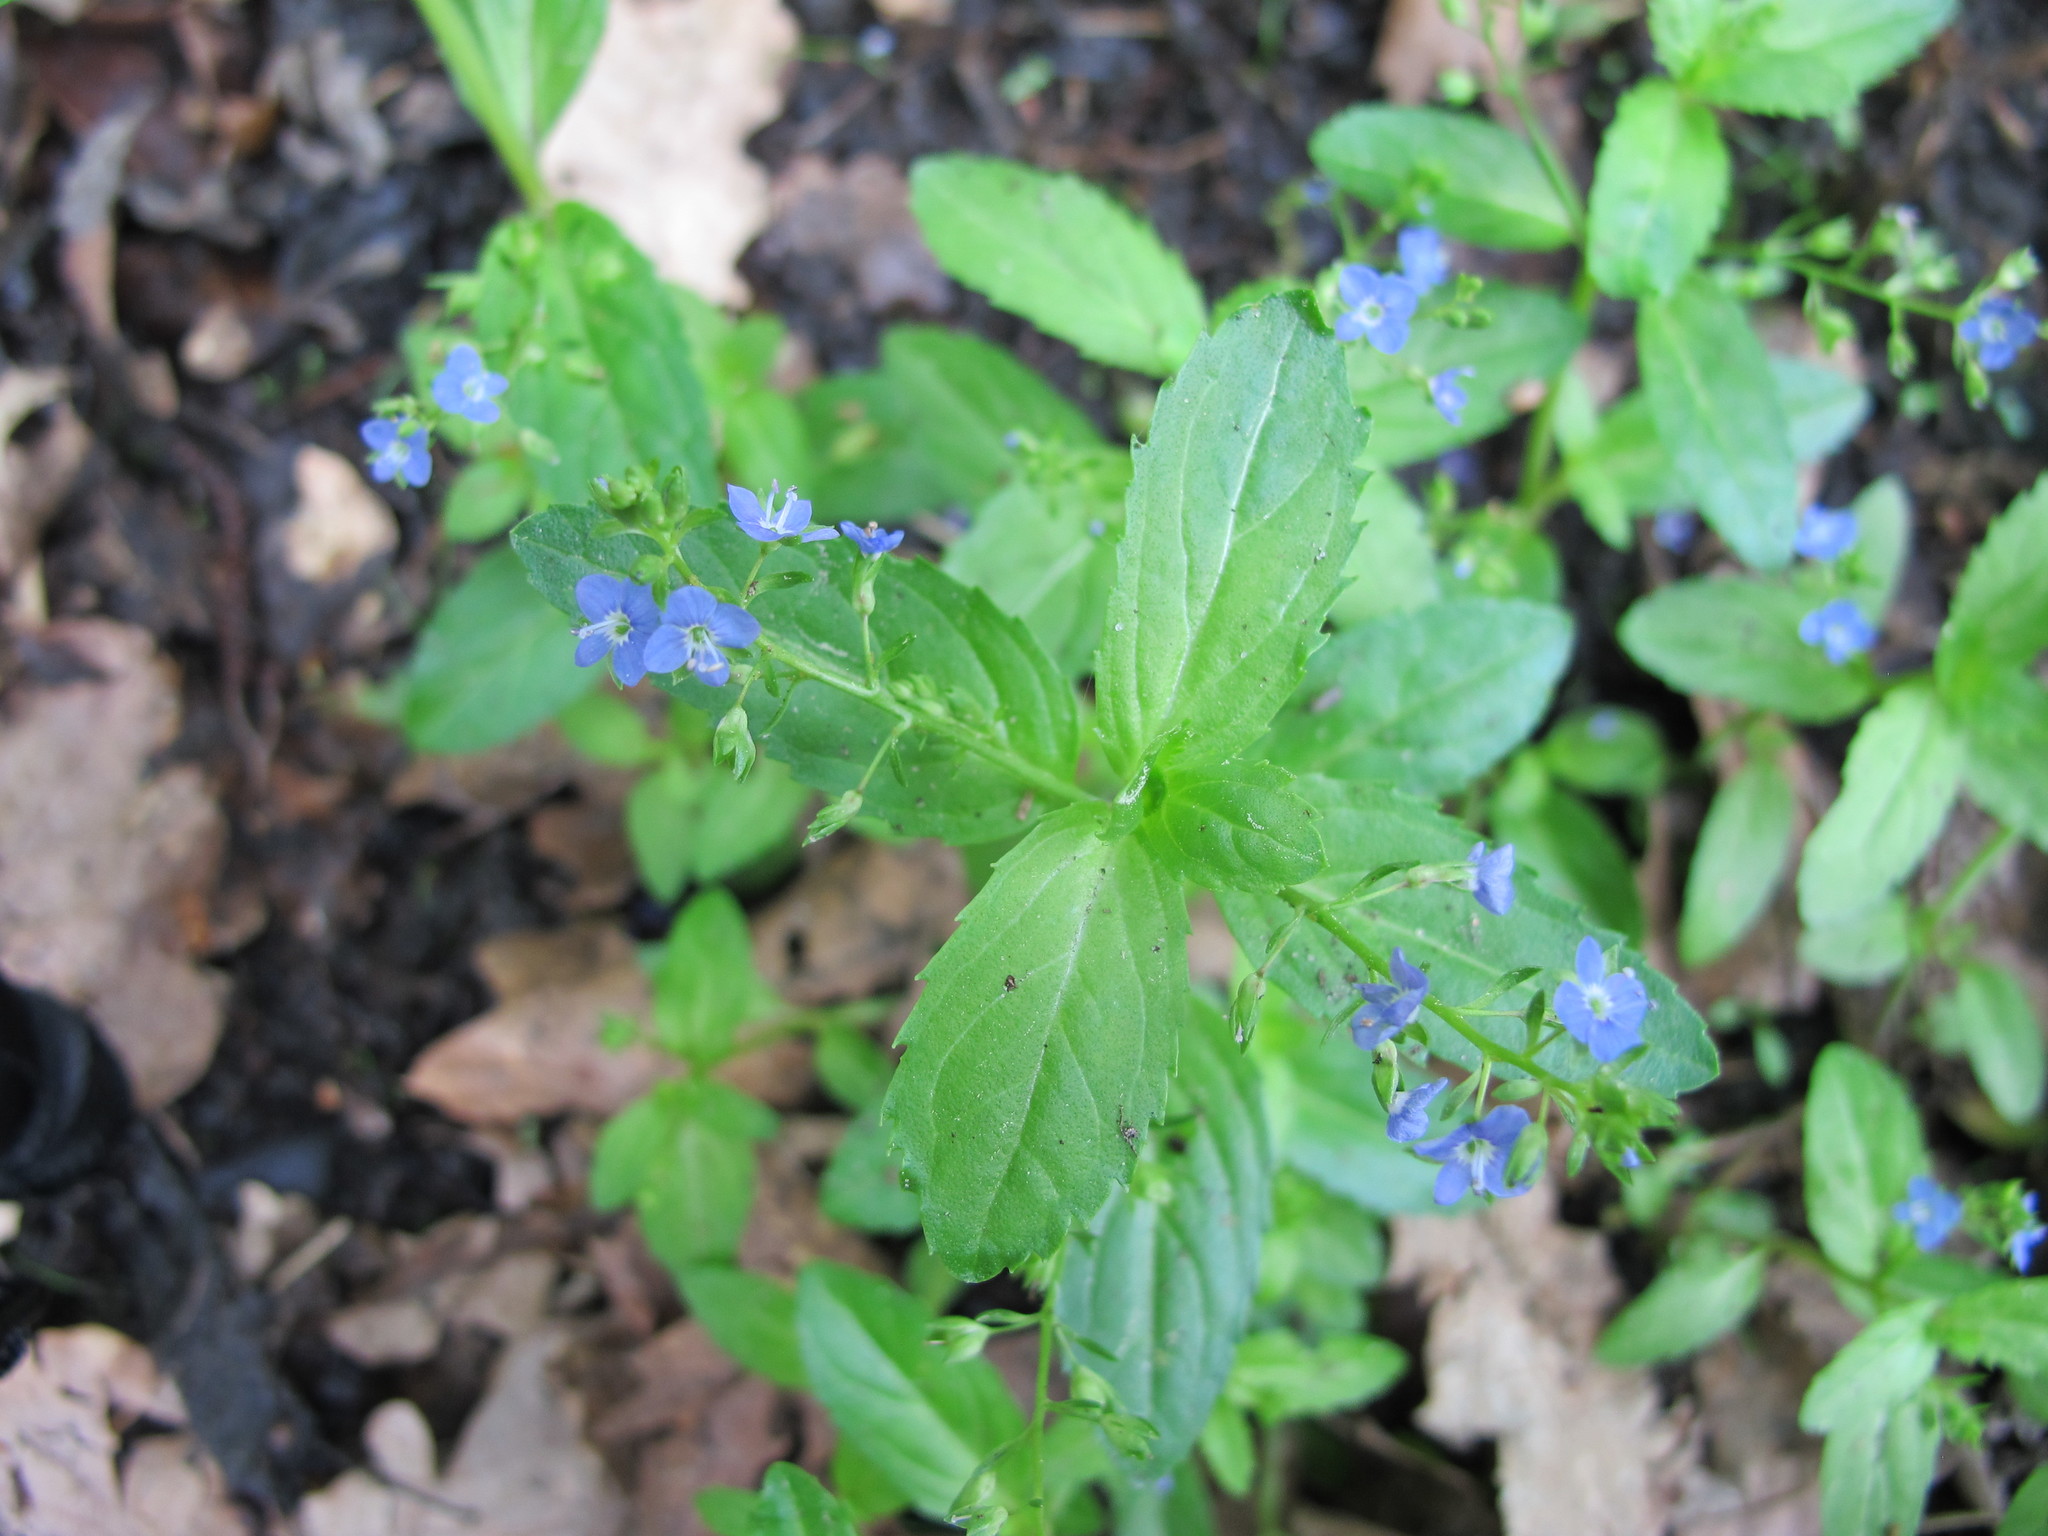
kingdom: Plantae
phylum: Tracheophyta
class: Magnoliopsida
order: Lamiales
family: Plantaginaceae
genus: Veronica
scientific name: Veronica beccabunga
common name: Brooklime
